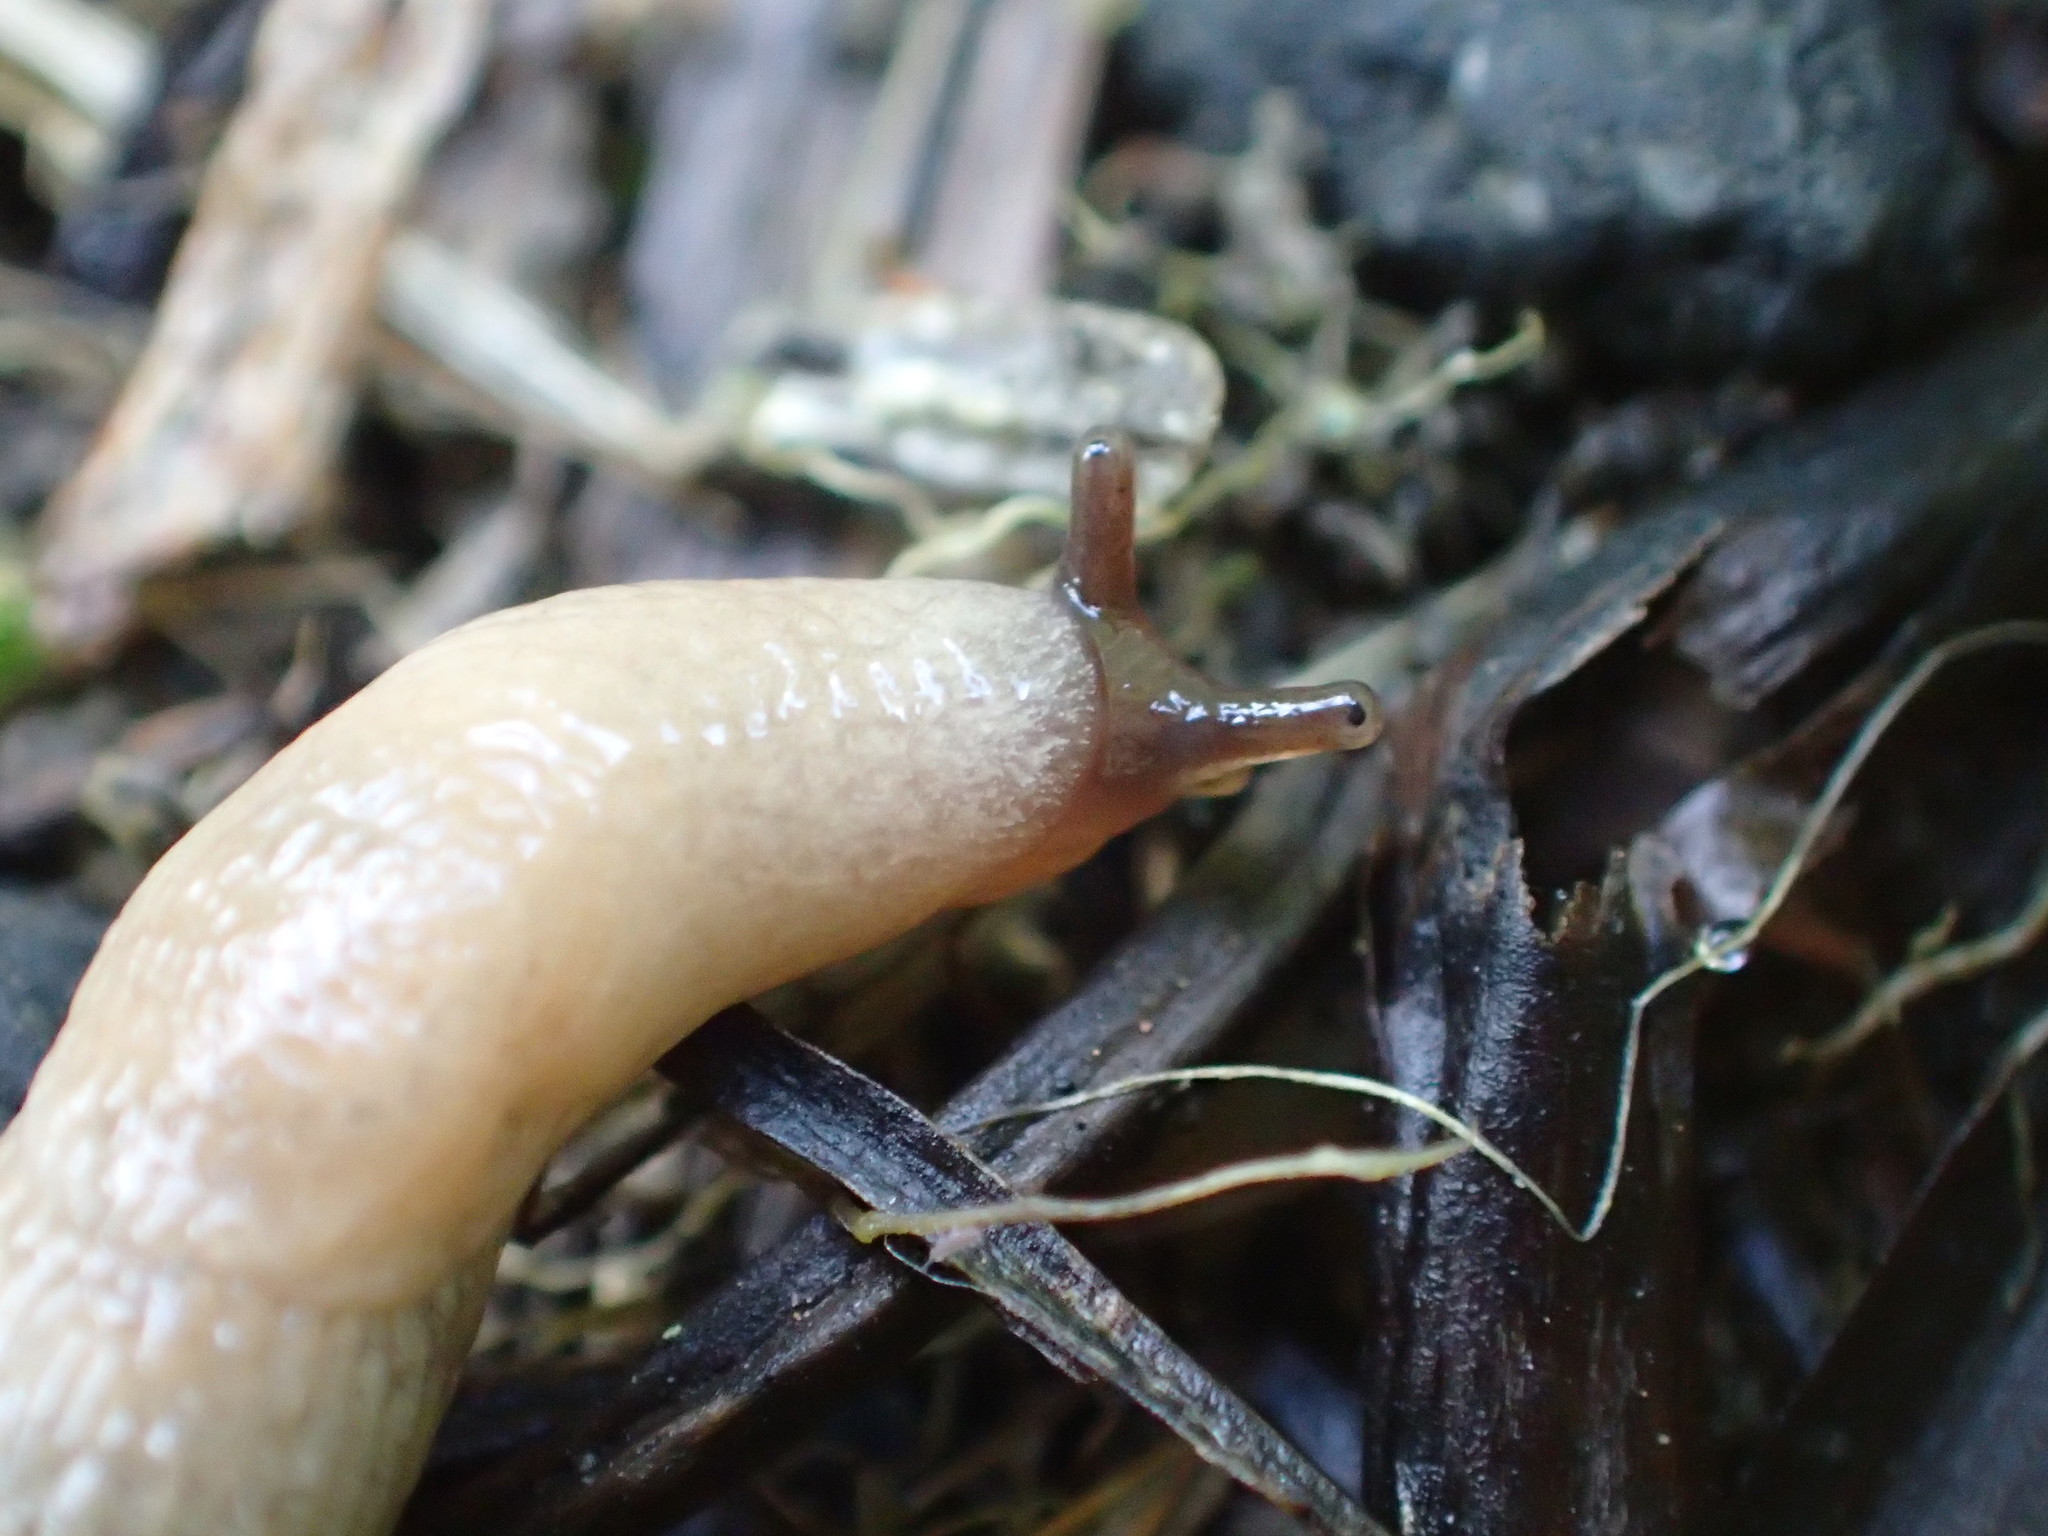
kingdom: Animalia
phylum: Mollusca
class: Gastropoda
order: Stylommatophora
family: Agriolimacidae
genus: Deroceras
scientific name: Deroceras agreste
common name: Field slug
